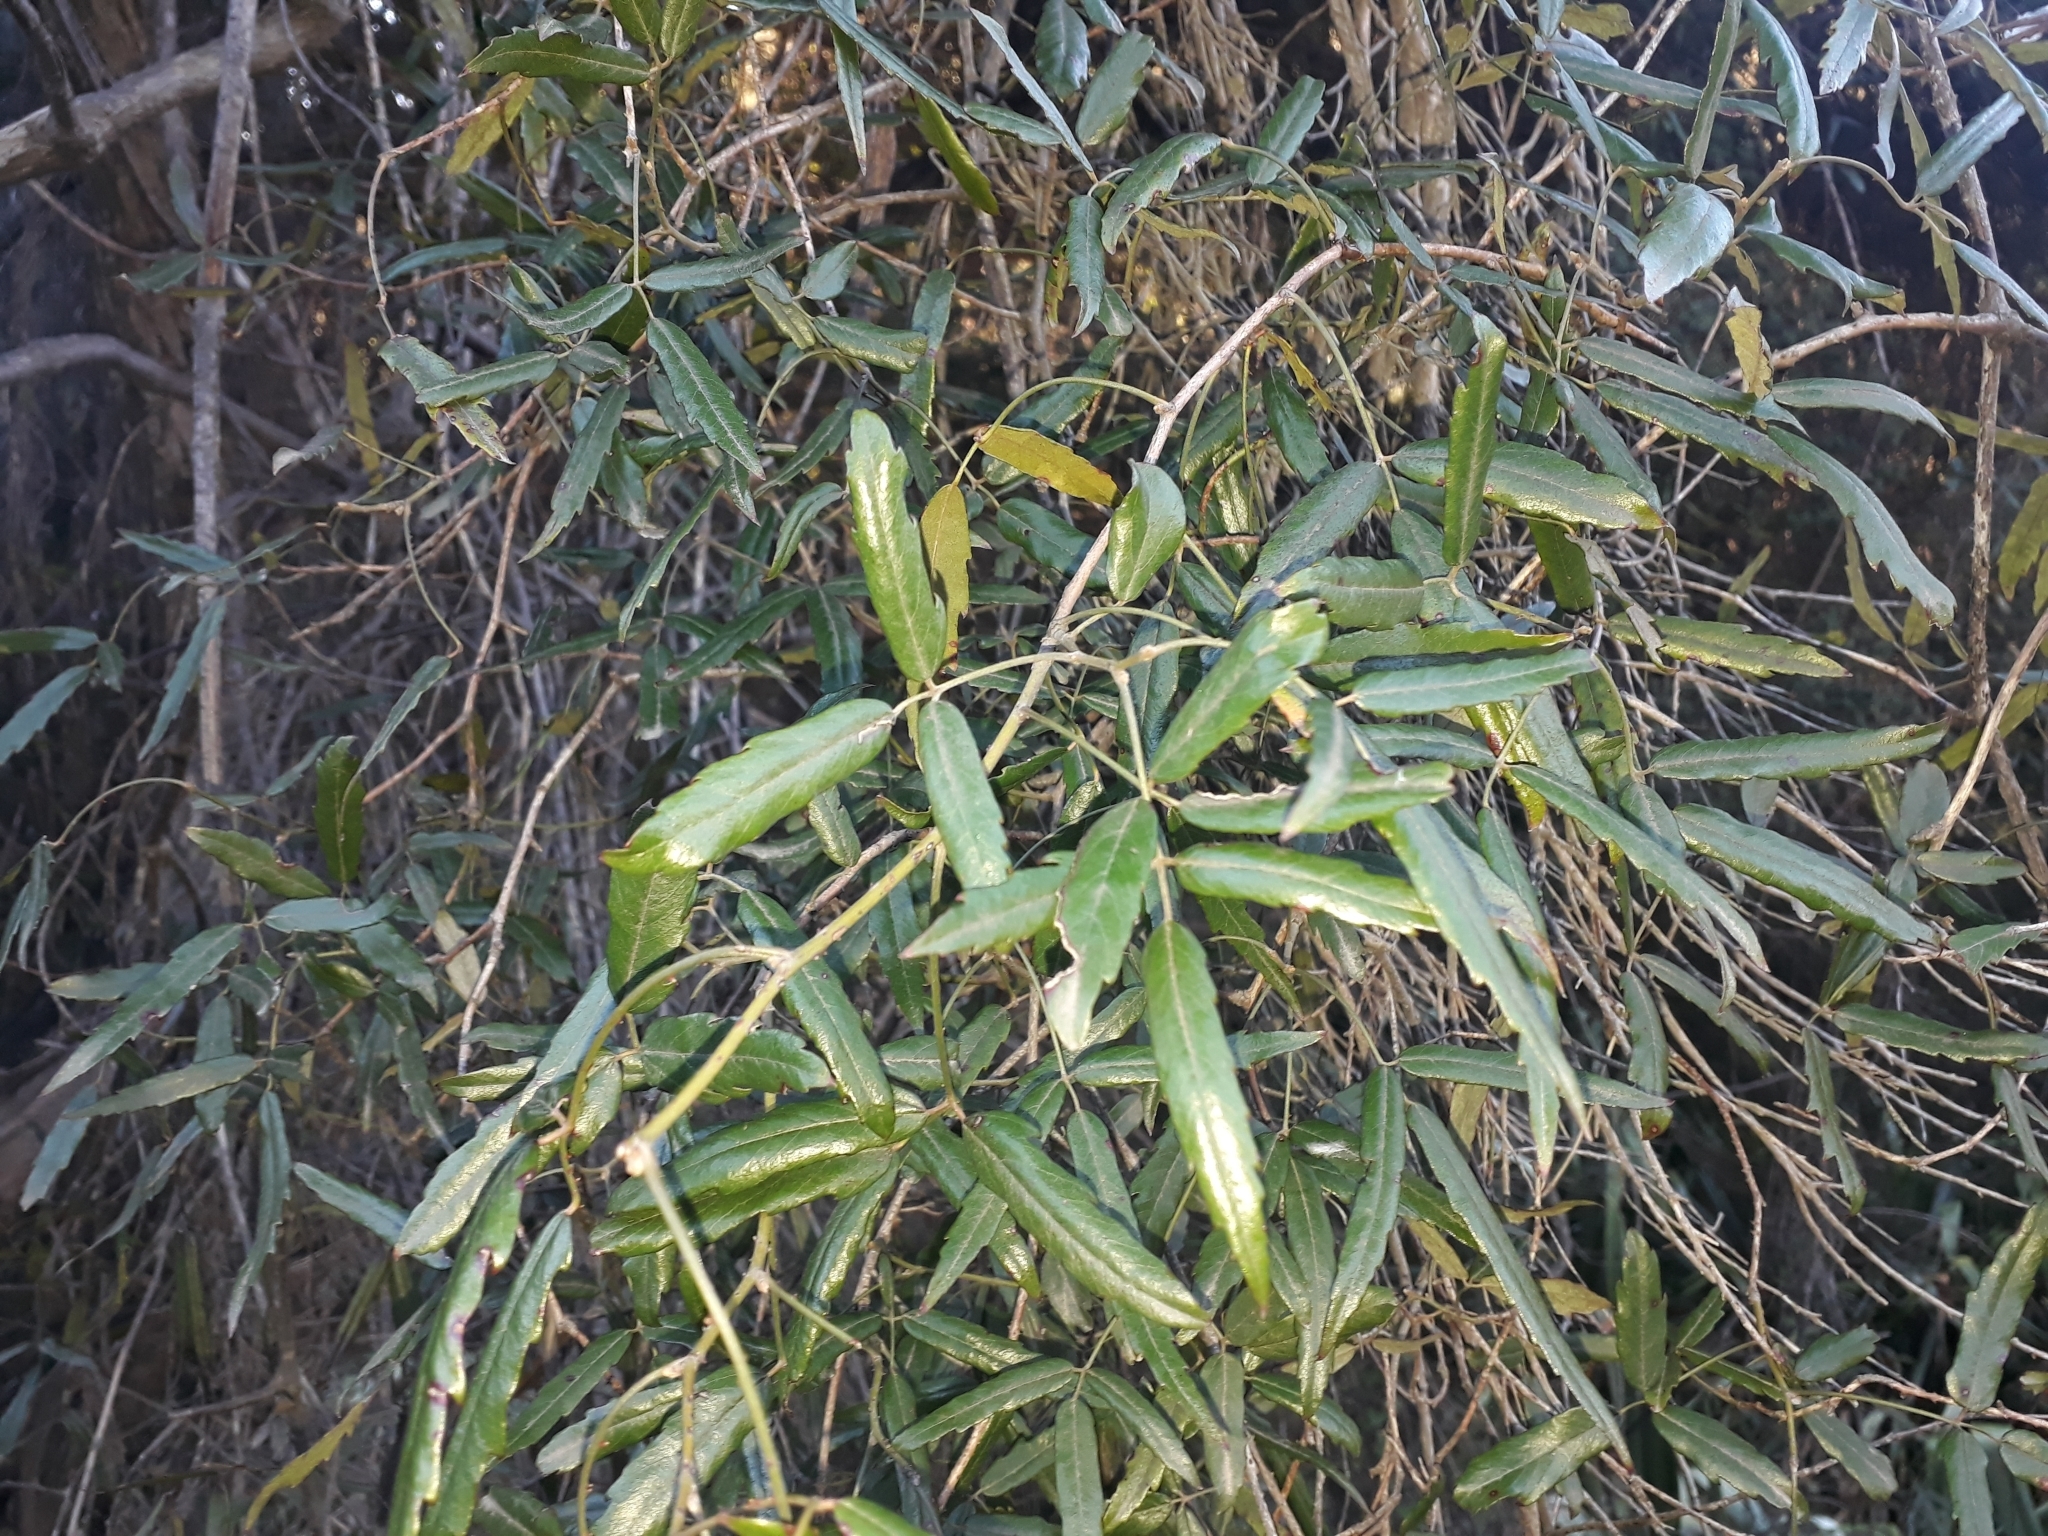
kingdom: Plantae
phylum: Tracheophyta
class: Magnoliopsida
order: Rosales
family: Rosaceae
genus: Rubus
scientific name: Rubus schmidelioides
